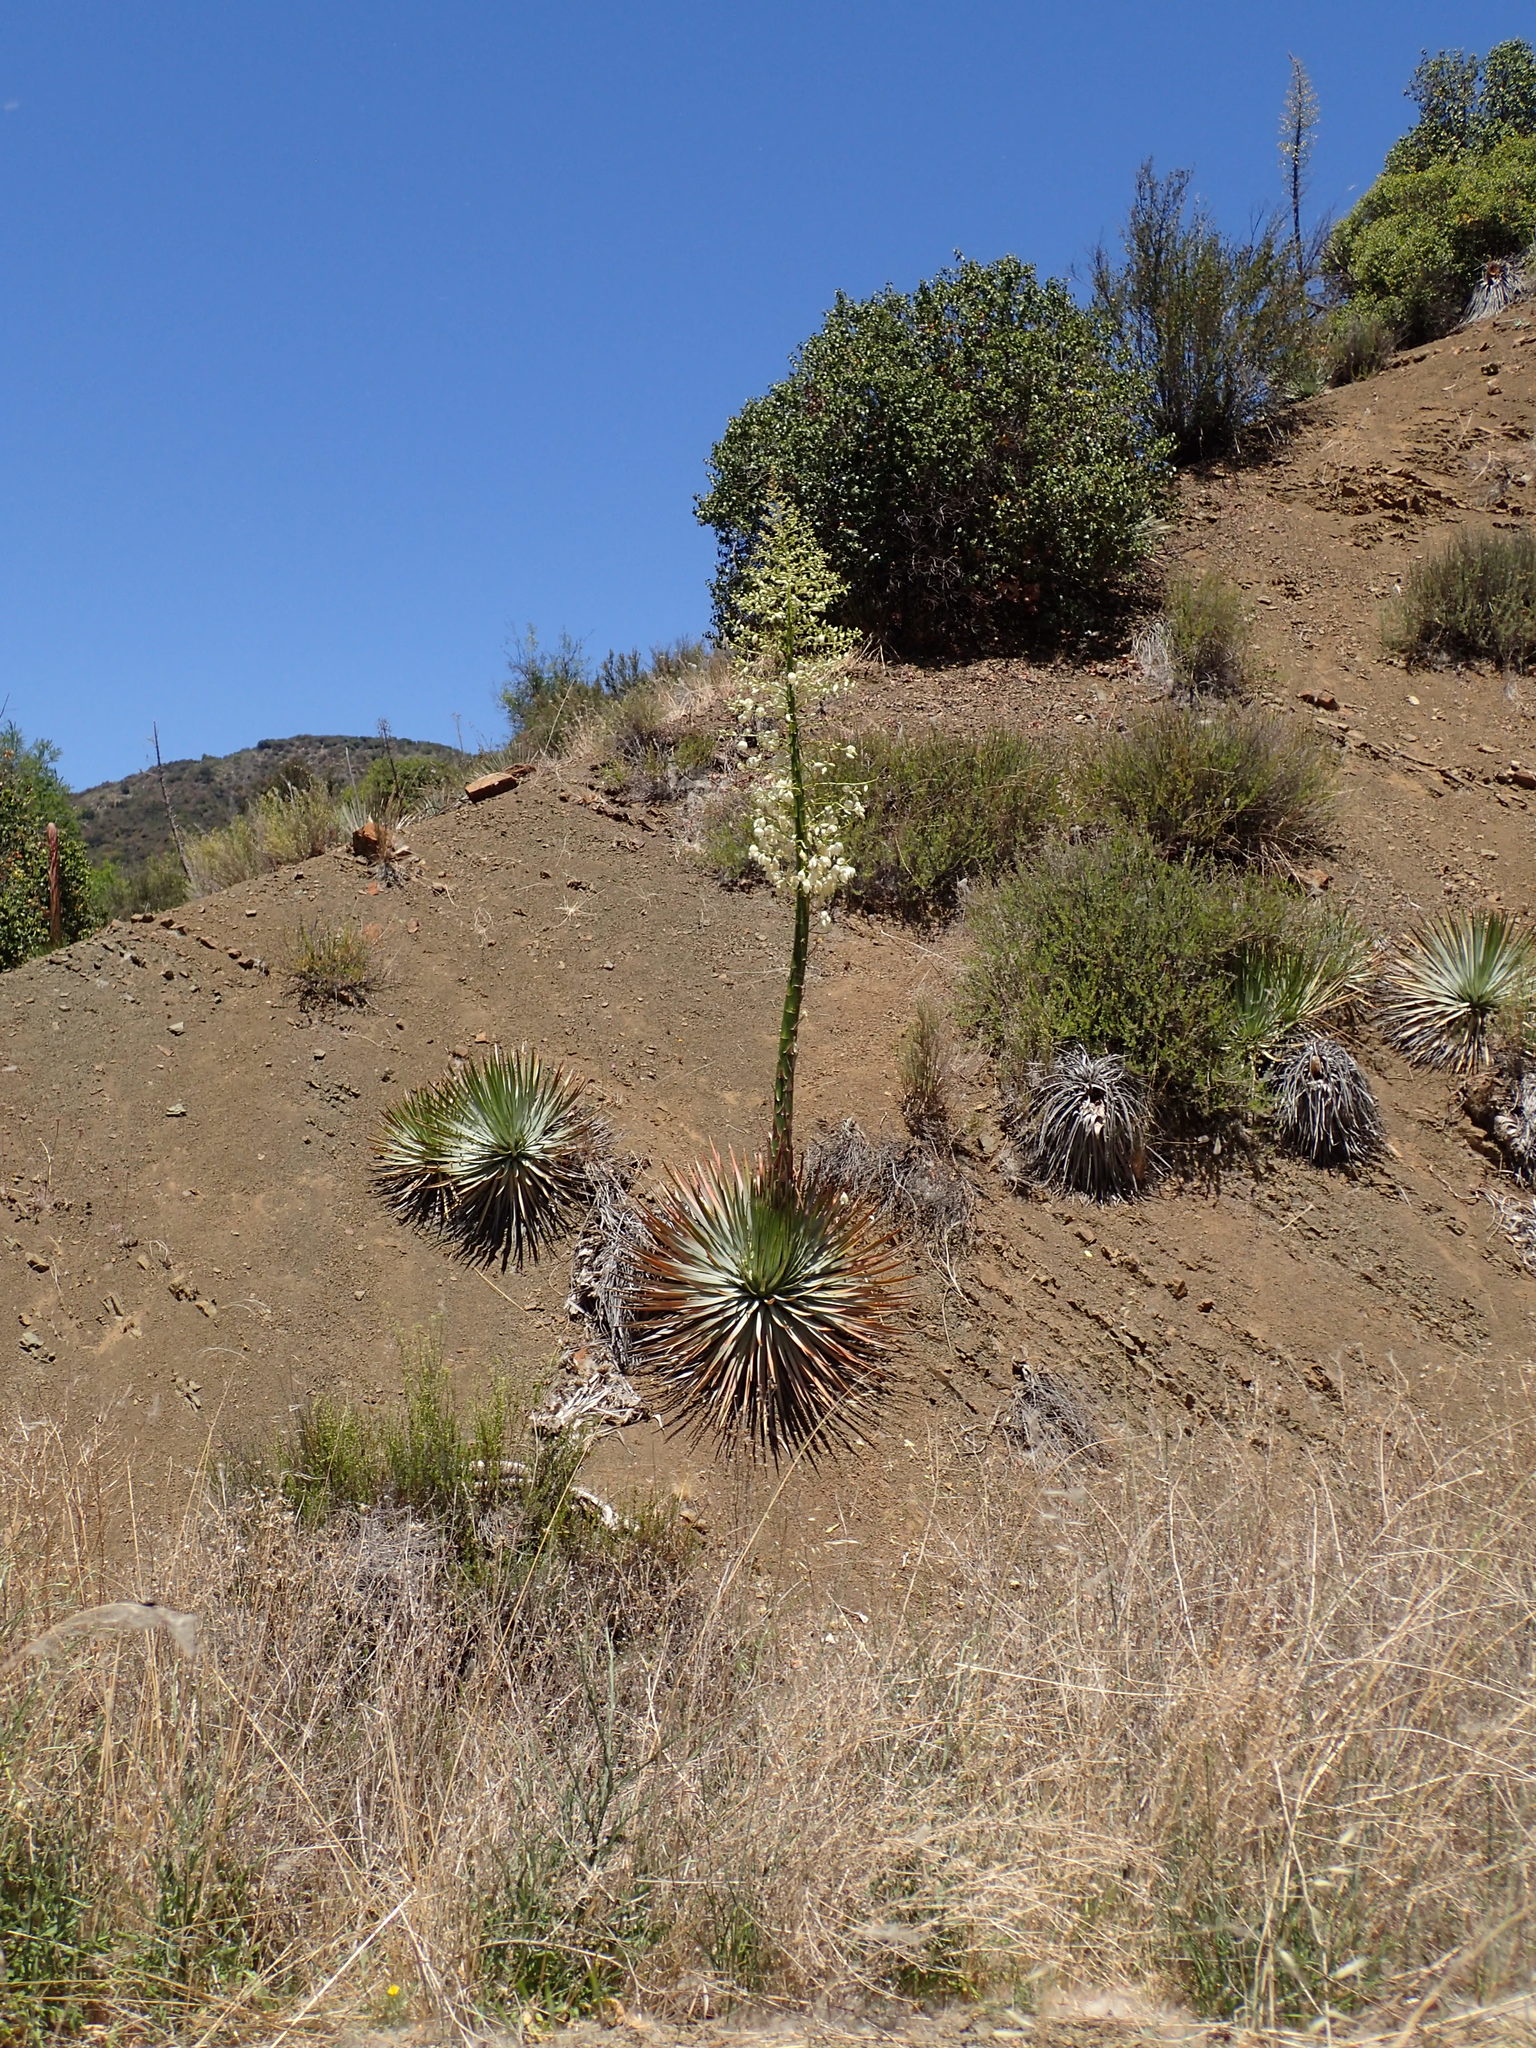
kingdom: Plantae
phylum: Tracheophyta
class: Liliopsida
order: Asparagales
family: Asparagaceae
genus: Hesperoyucca
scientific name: Hesperoyucca whipplei
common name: Our lord's-candle
